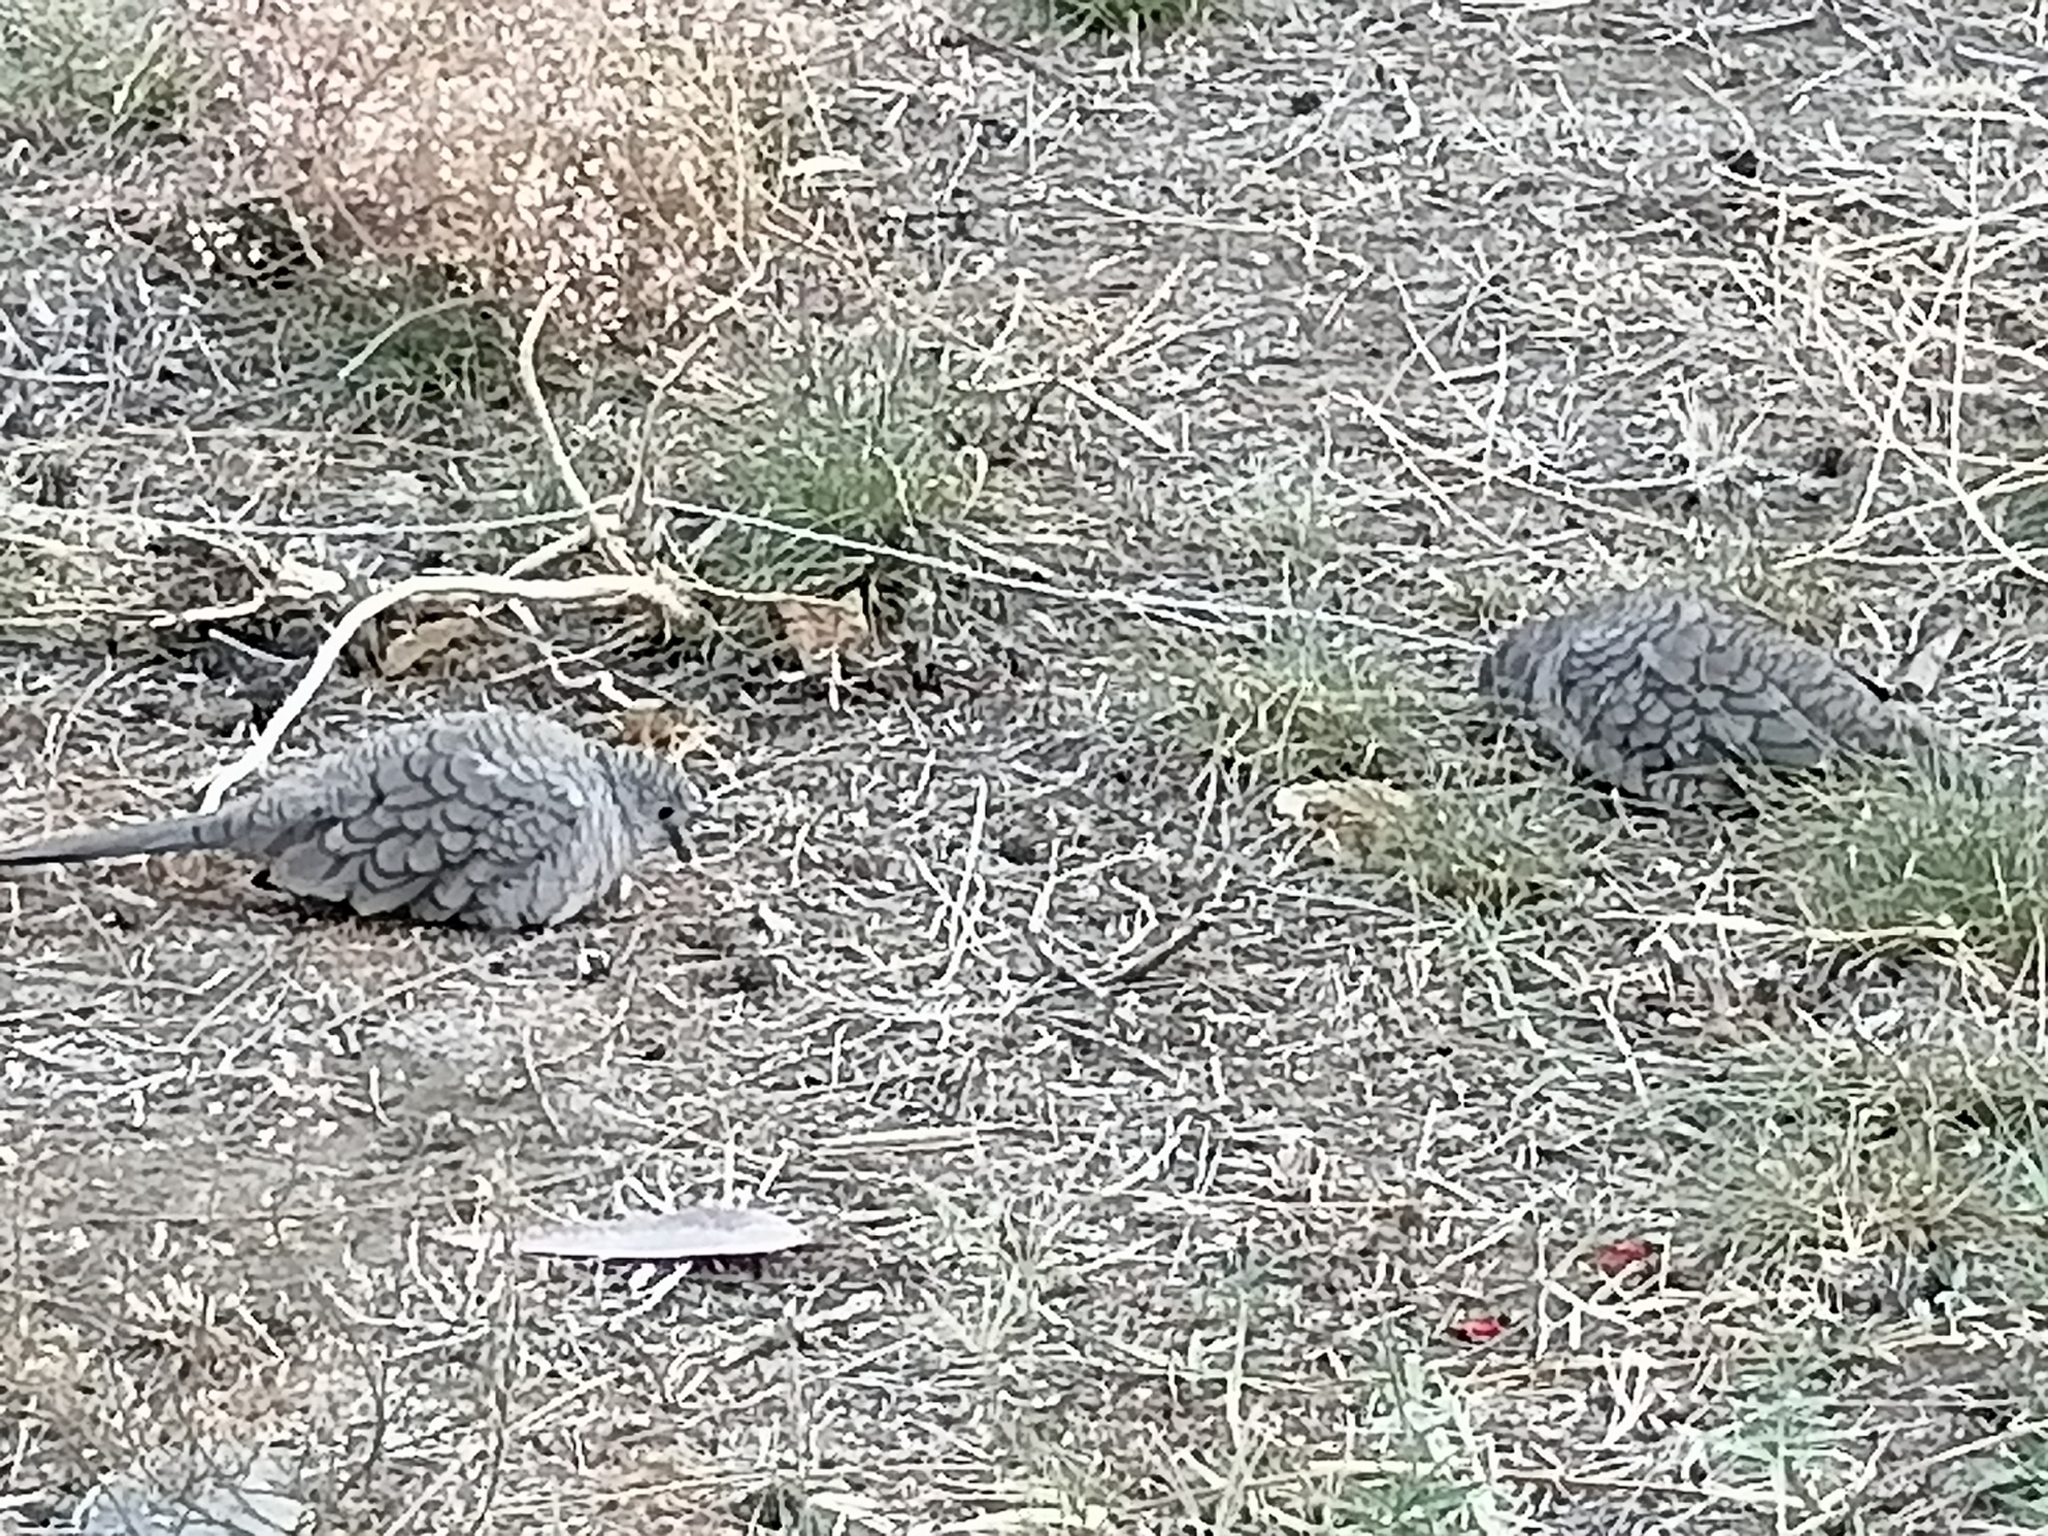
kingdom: Animalia
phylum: Chordata
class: Aves
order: Columbiformes
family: Columbidae
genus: Columbina
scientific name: Columbina inca
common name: Inca dove
